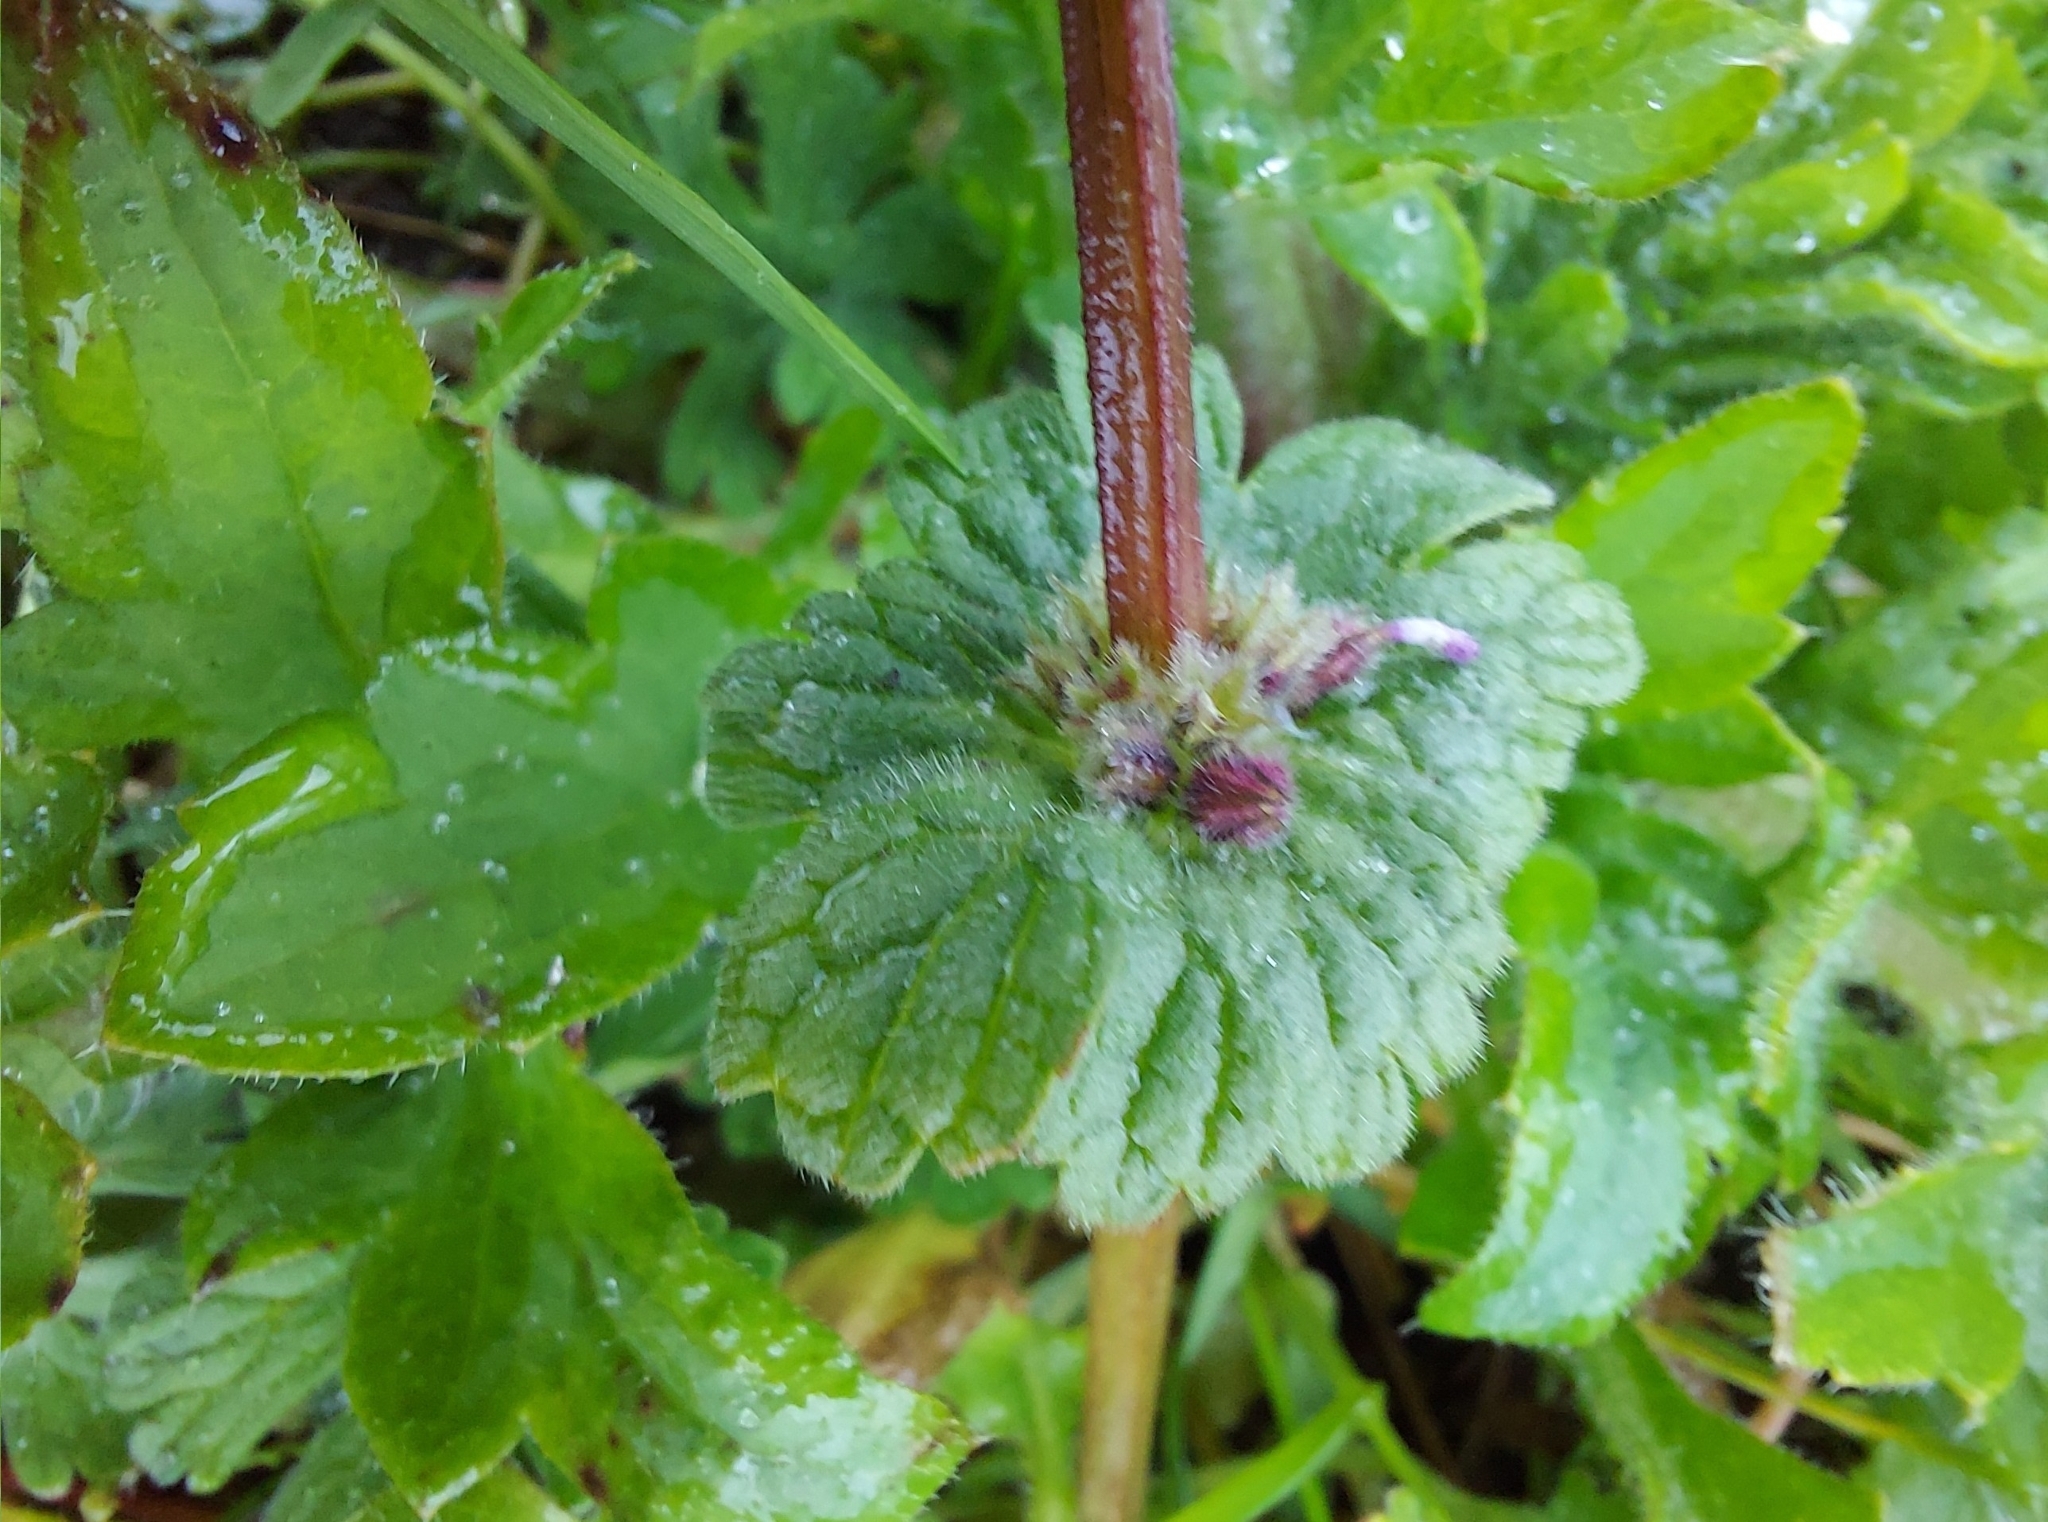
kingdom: Plantae
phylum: Tracheophyta
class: Magnoliopsida
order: Lamiales
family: Lamiaceae
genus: Lamium
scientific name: Lamium amplexicaule
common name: Henbit dead-nettle
